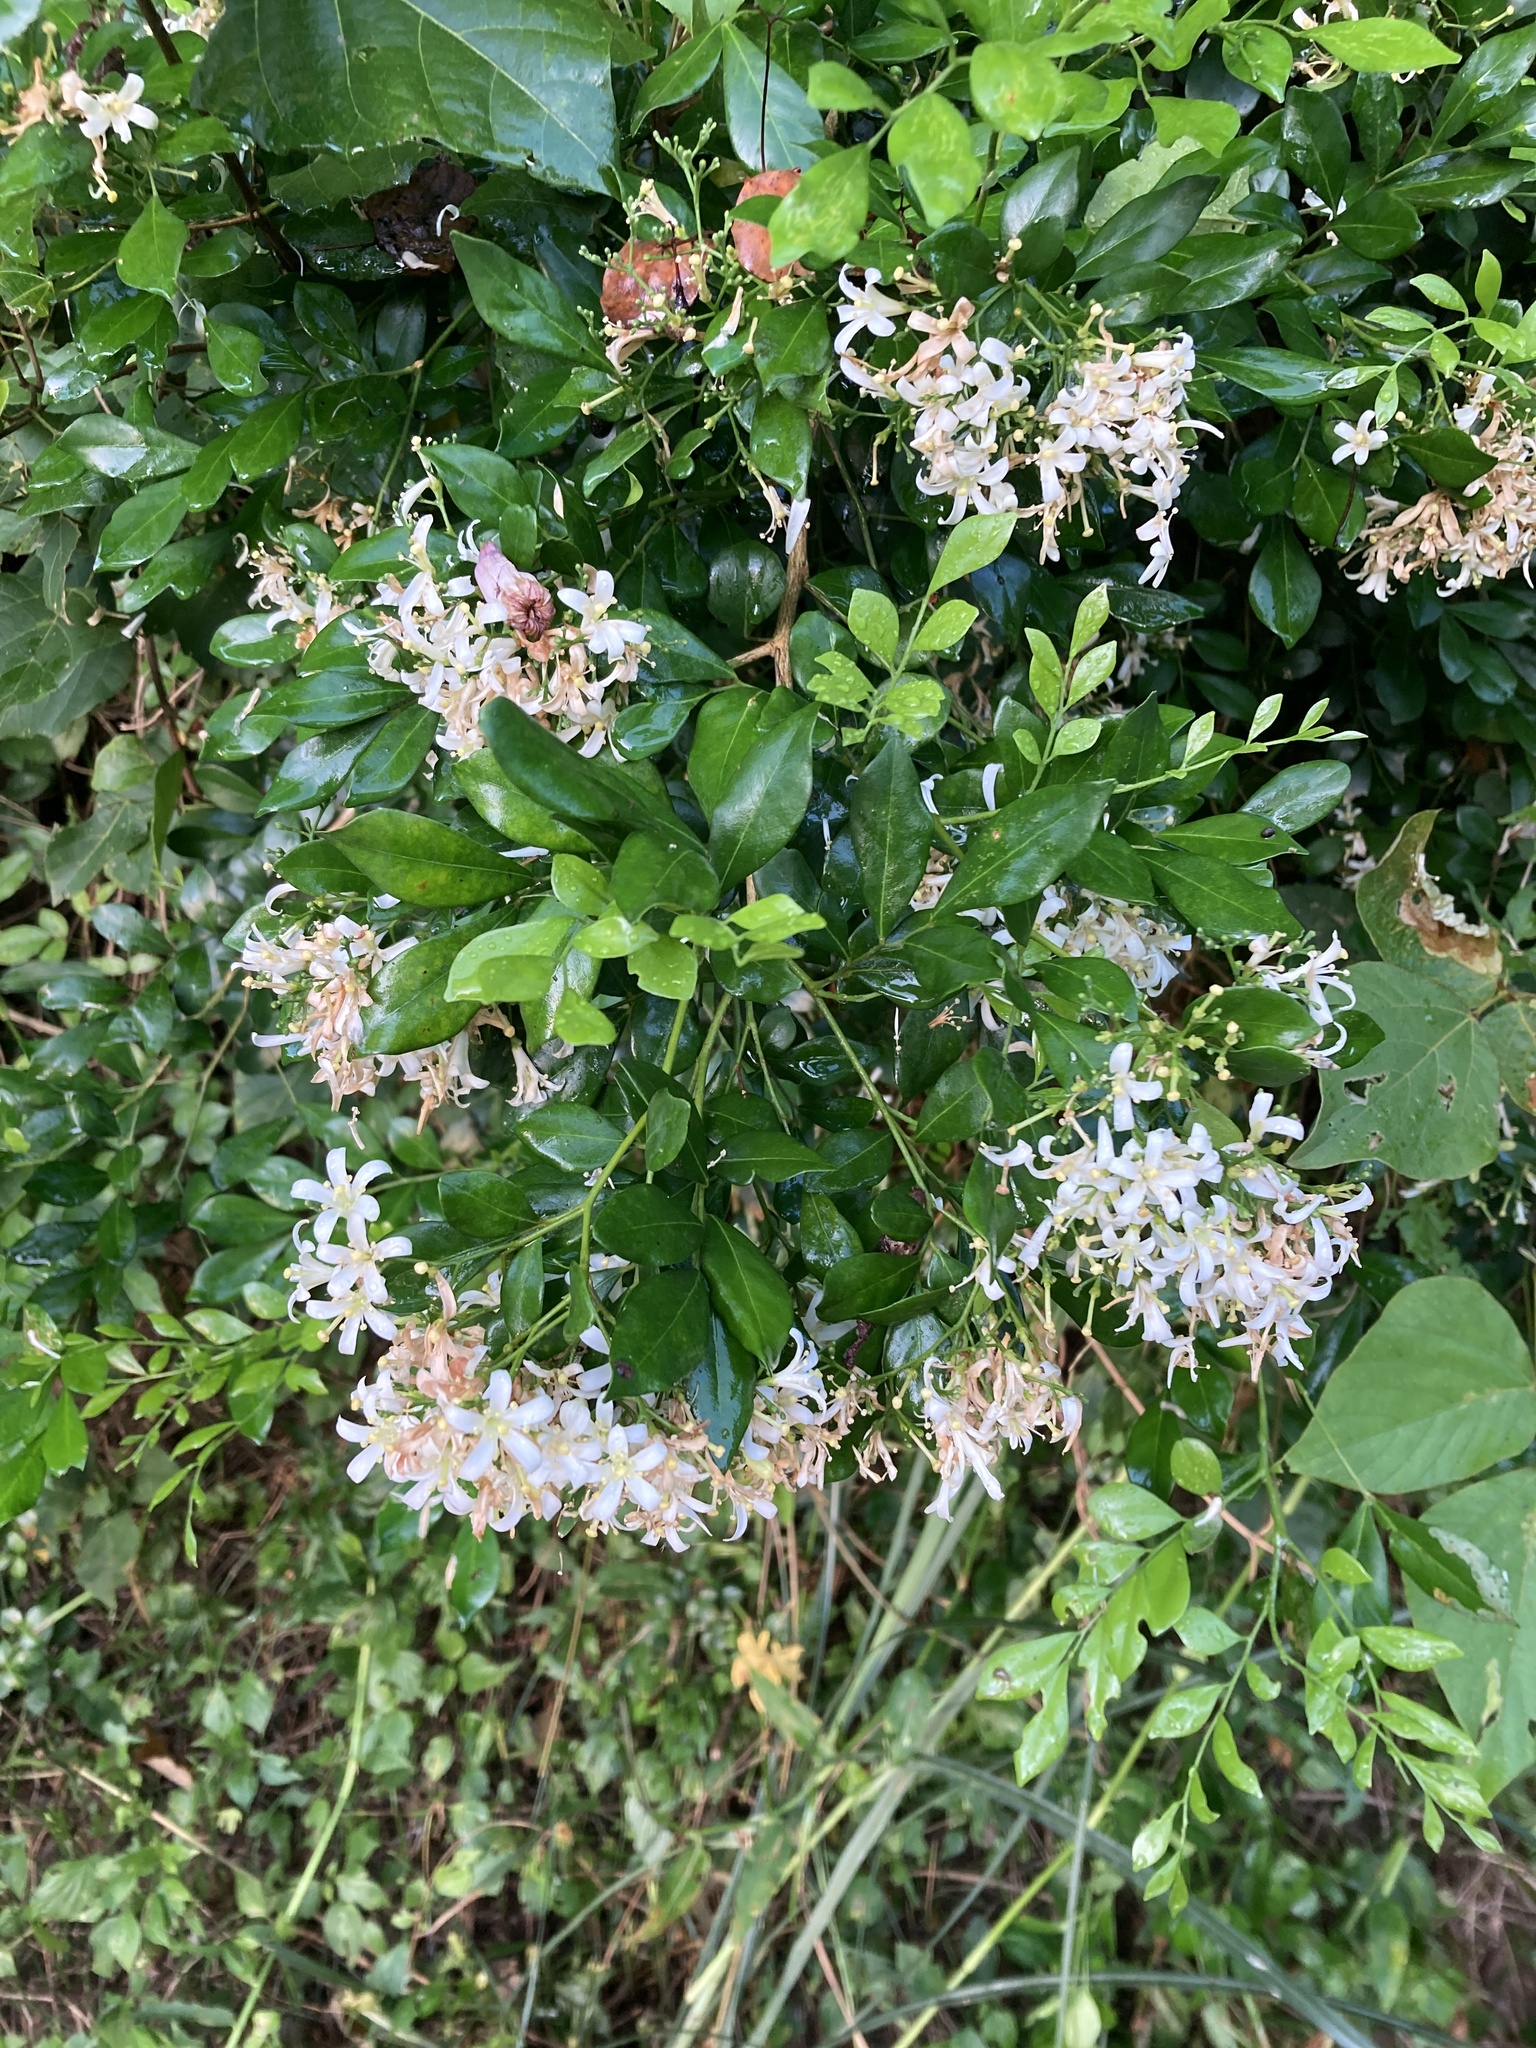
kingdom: Plantae
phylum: Tracheophyta
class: Magnoliopsida
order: Sapindales
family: Rutaceae
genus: Murraya
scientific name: Murraya paniculata
